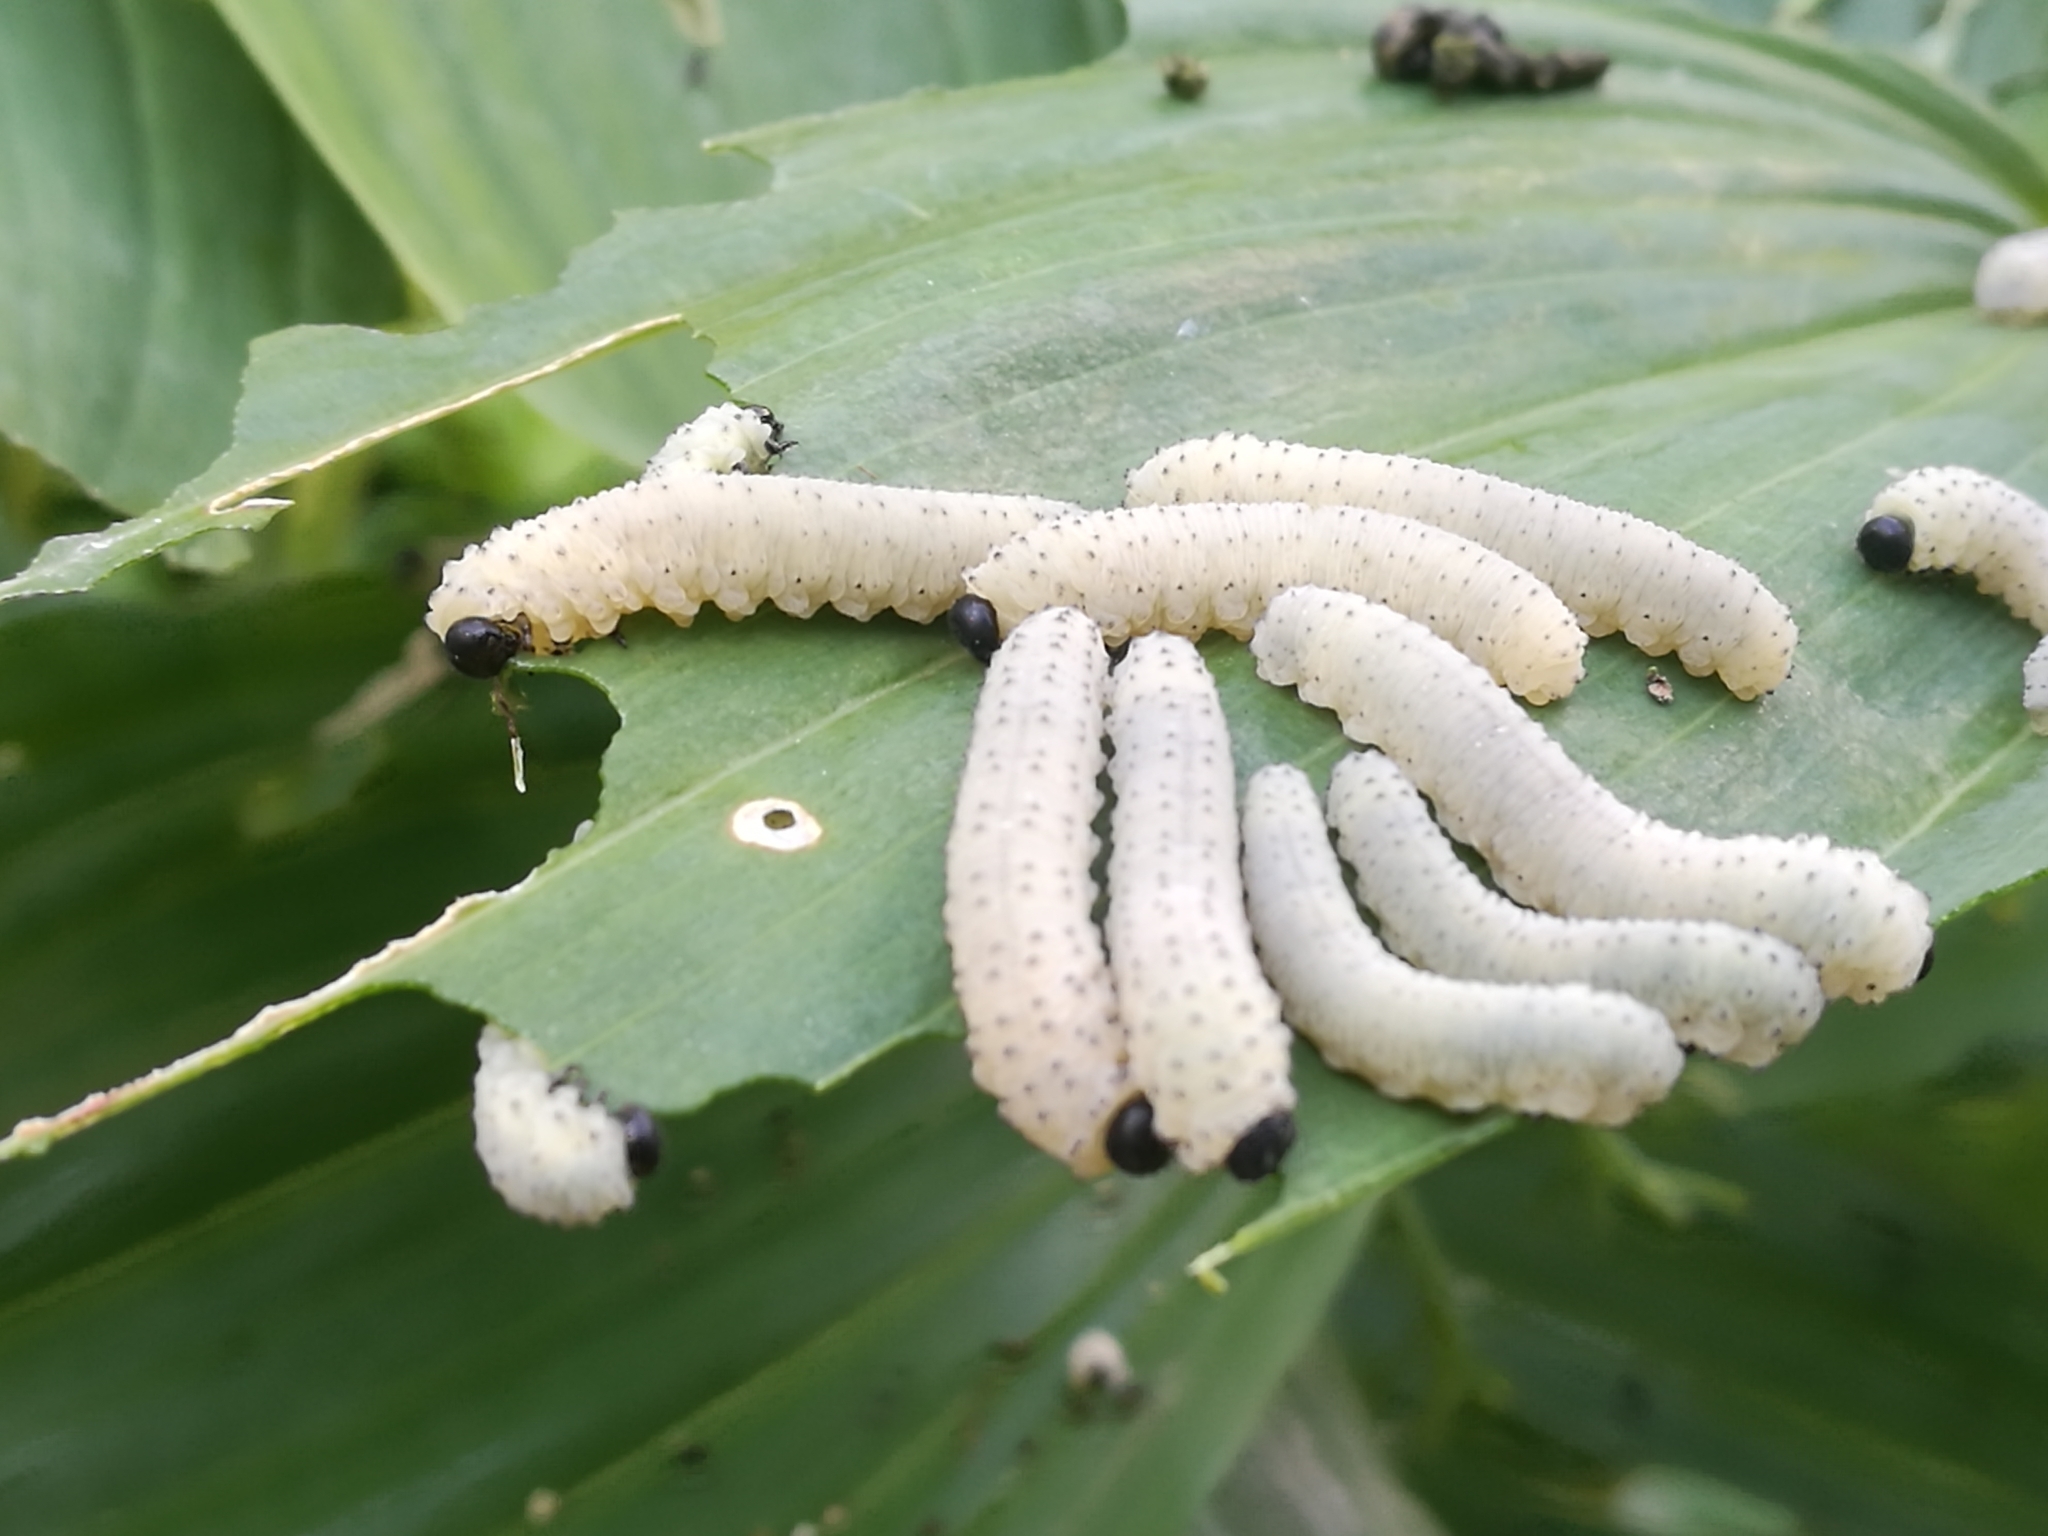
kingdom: Animalia
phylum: Arthropoda
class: Insecta
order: Hymenoptera
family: Tenthredinidae
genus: Phymatocera
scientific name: Phymatocera aterrima
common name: Solomon's-seal sawfly
